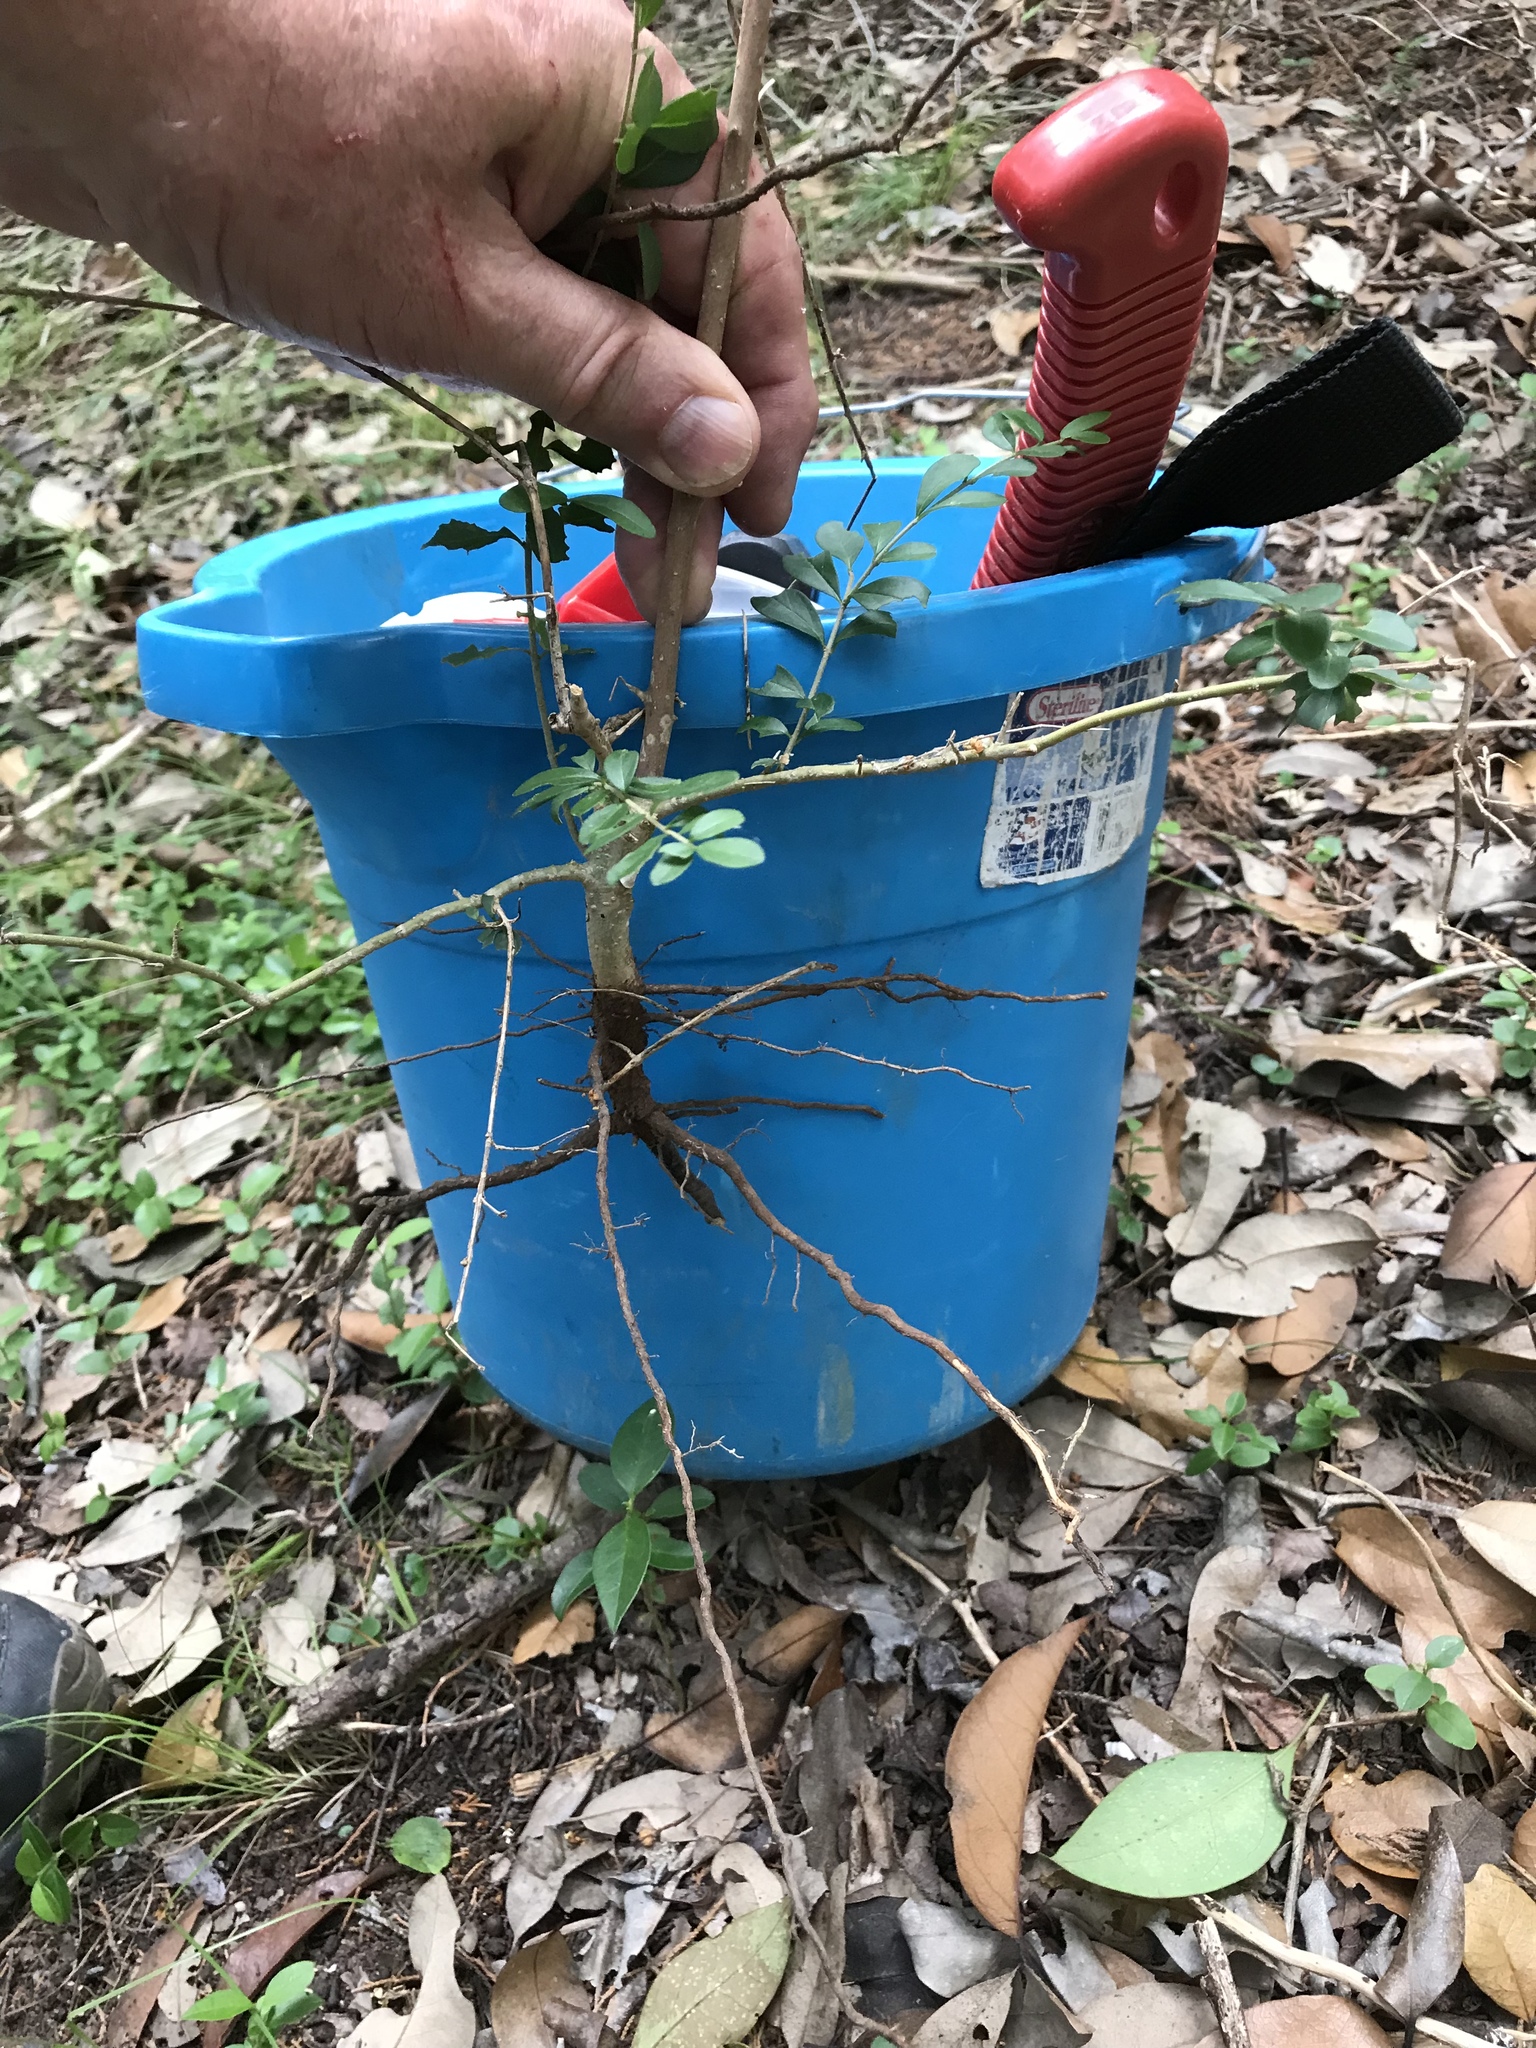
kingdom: Plantae
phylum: Tracheophyta
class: Magnoliopsida
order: Lamiales
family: Oleaceae
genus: Ligustrum
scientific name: Ligustrum quihoui
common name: Waxyleaf privet
